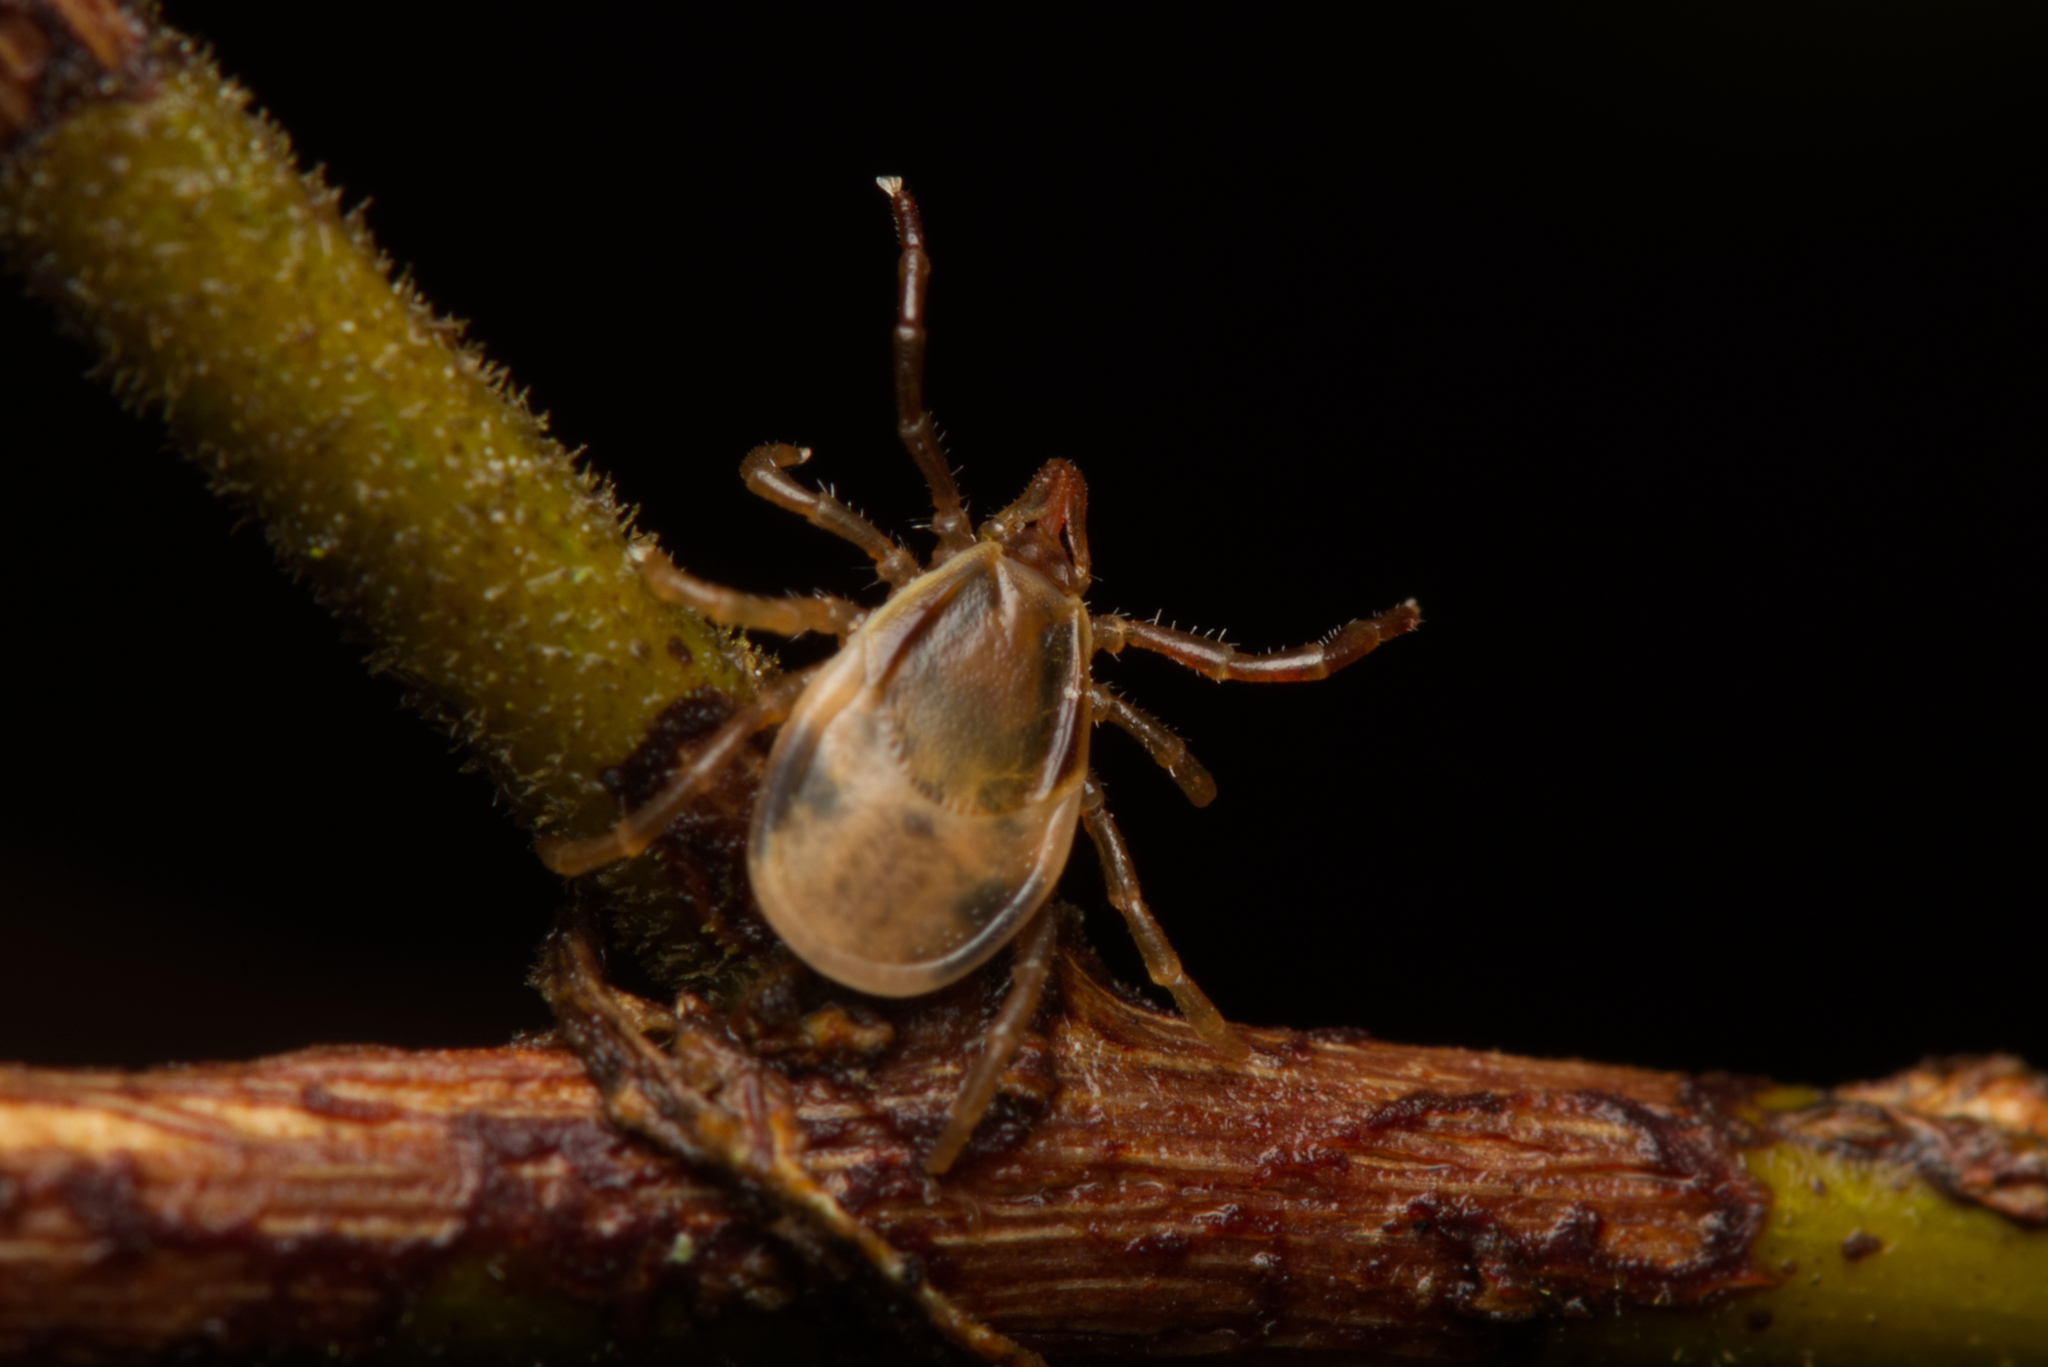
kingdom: Animalia
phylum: Arthropoda
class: Arachnida
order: Ixodida
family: Ixodidae
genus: Ixodes
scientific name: Ixodes holocyclus
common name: Australian paralysis tick
